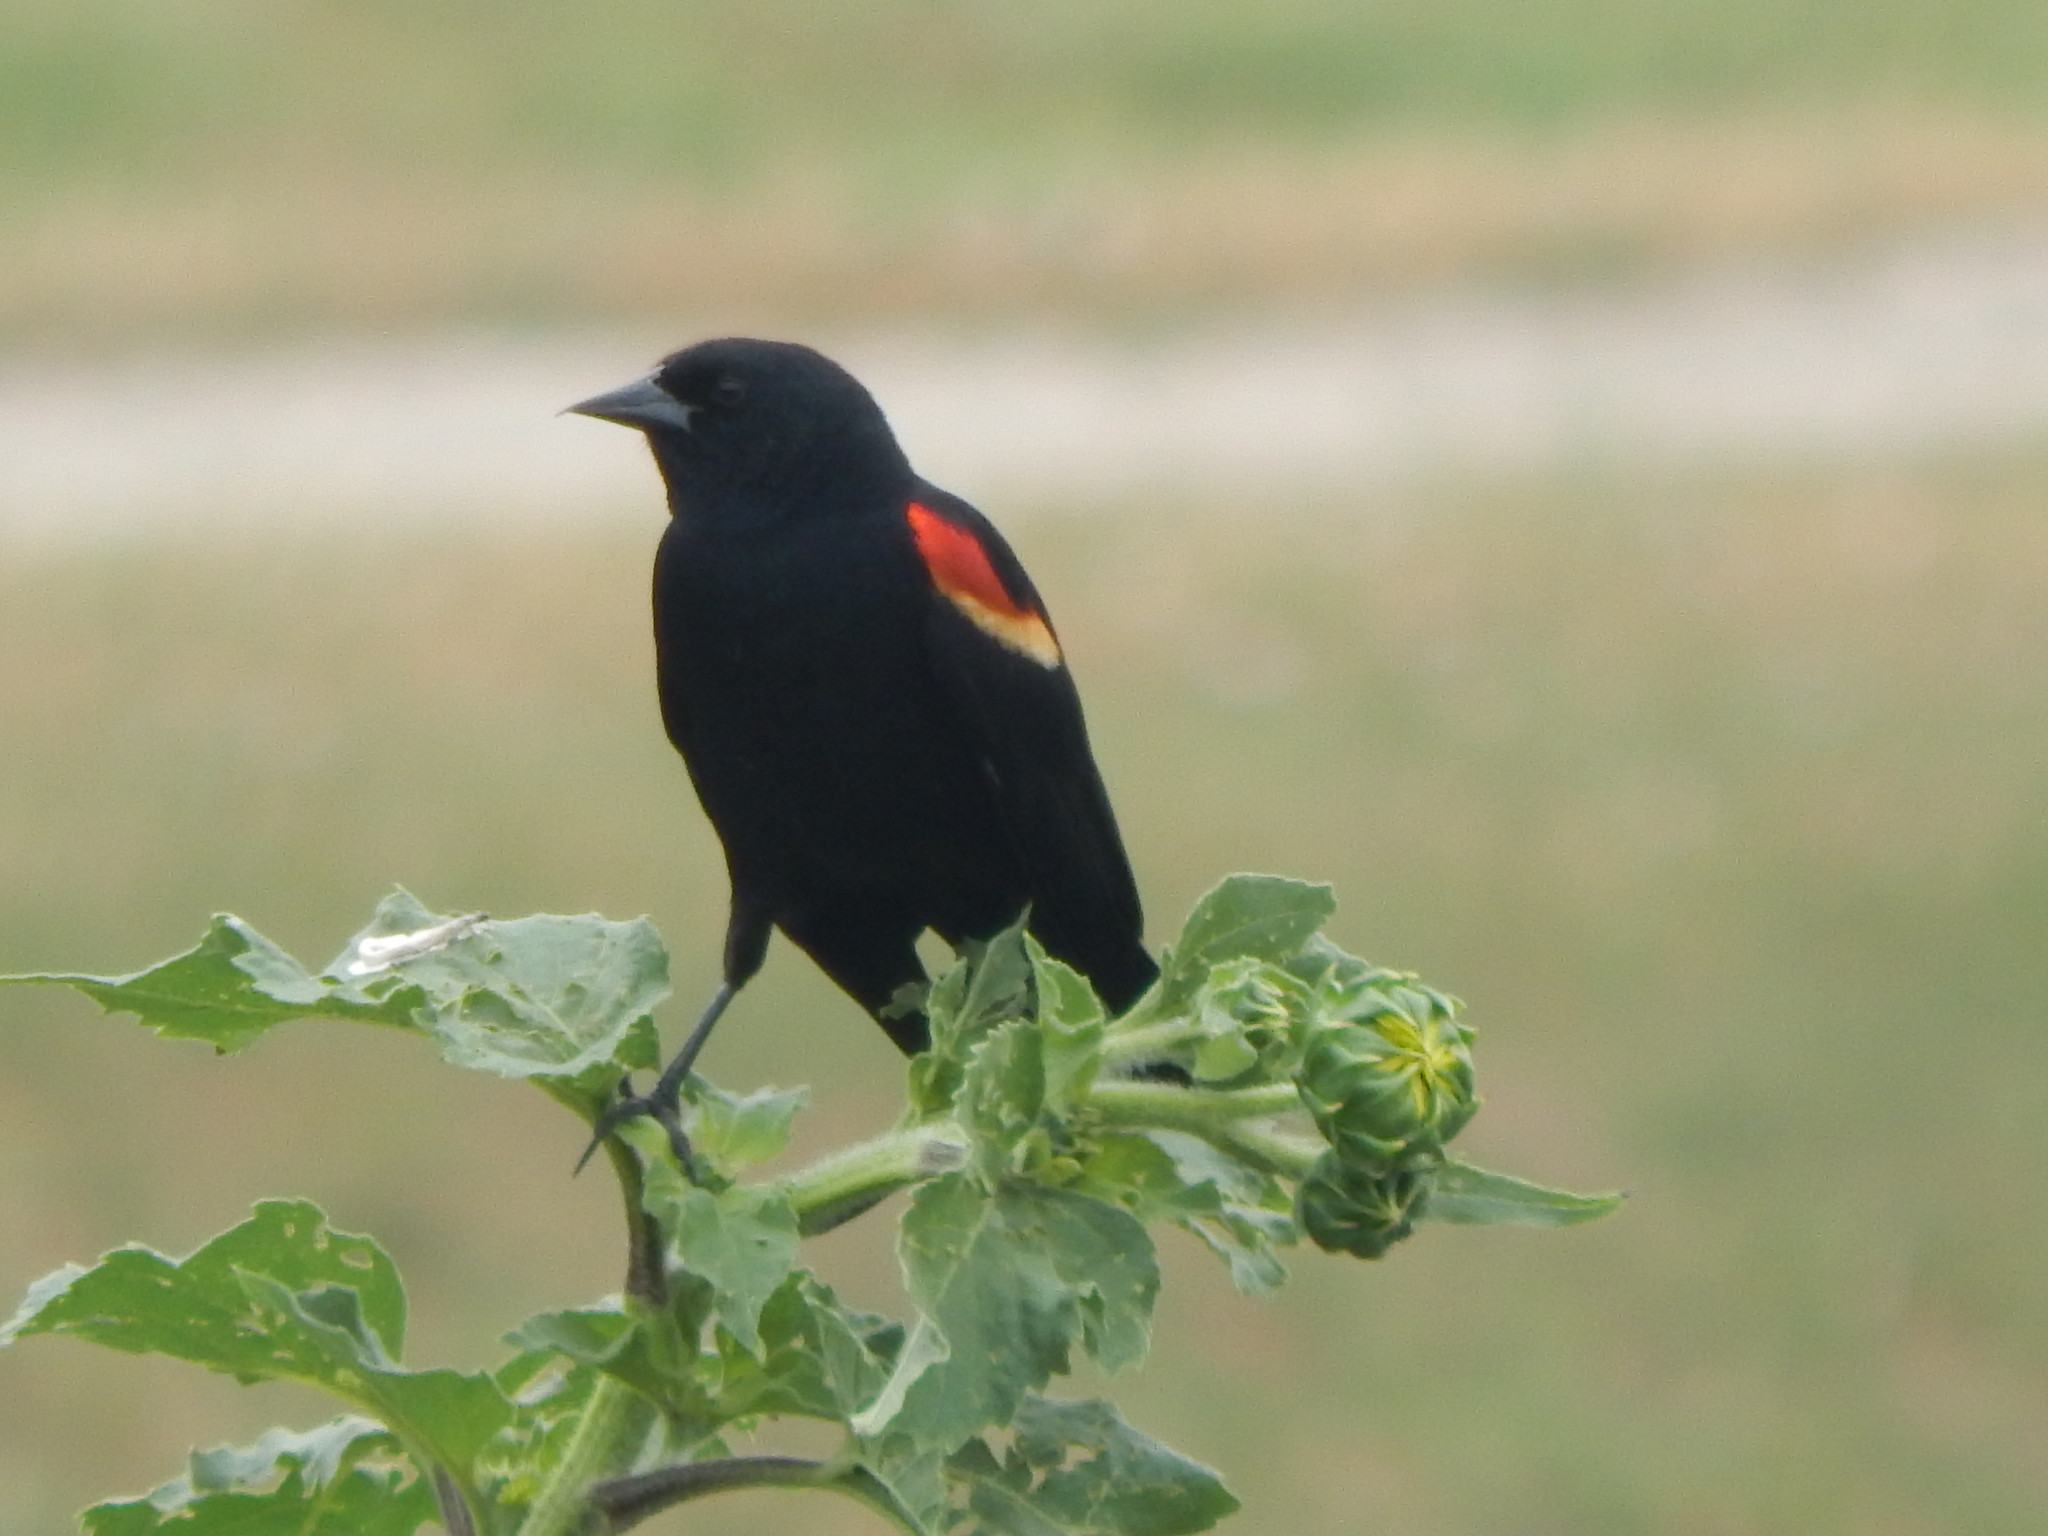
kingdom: Animalia
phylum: Chordata
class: Aves
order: Passeriformes
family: Icteridae
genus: Agelaius
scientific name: Agelaius phoeniceus
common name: Red-winged blackbird
